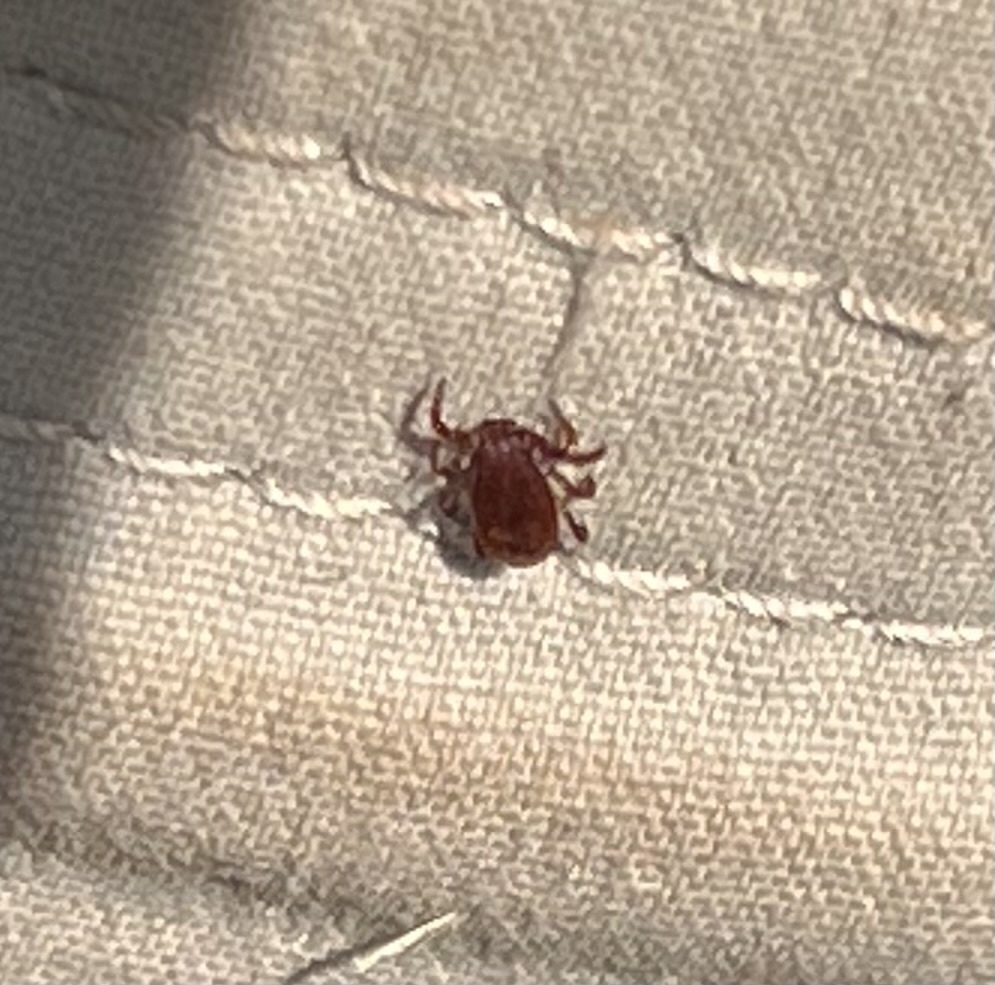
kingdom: Animalia
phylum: Arthropoda
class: Arachnida
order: Ixodida
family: Ixodidae
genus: Rhipicephalus
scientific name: Rhipicephalus sanguineus
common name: Brown dog tick
